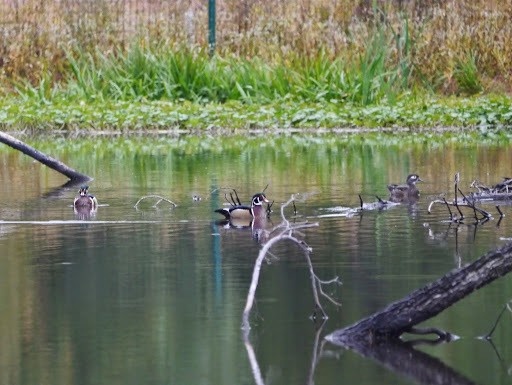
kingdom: Animalia
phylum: Chordata
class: Aves
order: Anseriformes
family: Anatidae
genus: Aix
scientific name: Aix sponsa
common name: Wood duck
